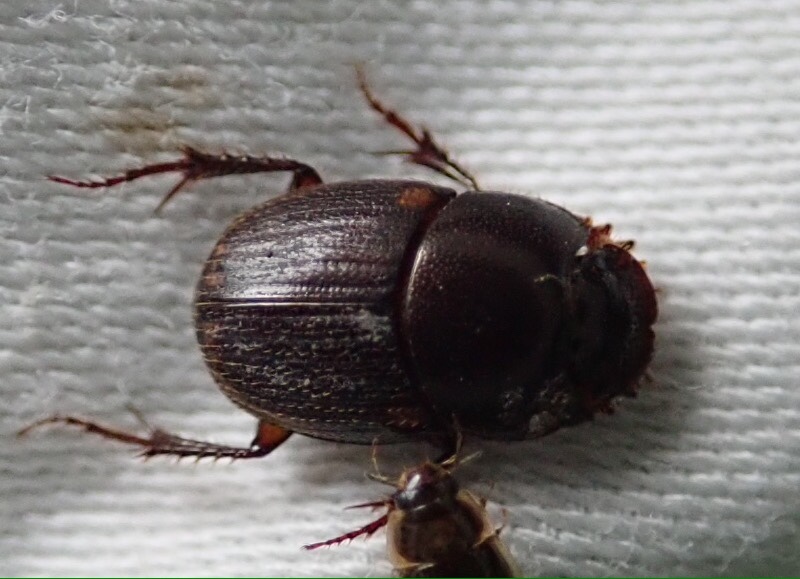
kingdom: Animalia
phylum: Arthropoda
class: Insecta
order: Coleoptera
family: Scarabaeidae
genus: Onthophagus
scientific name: Onthophagus vinctus
